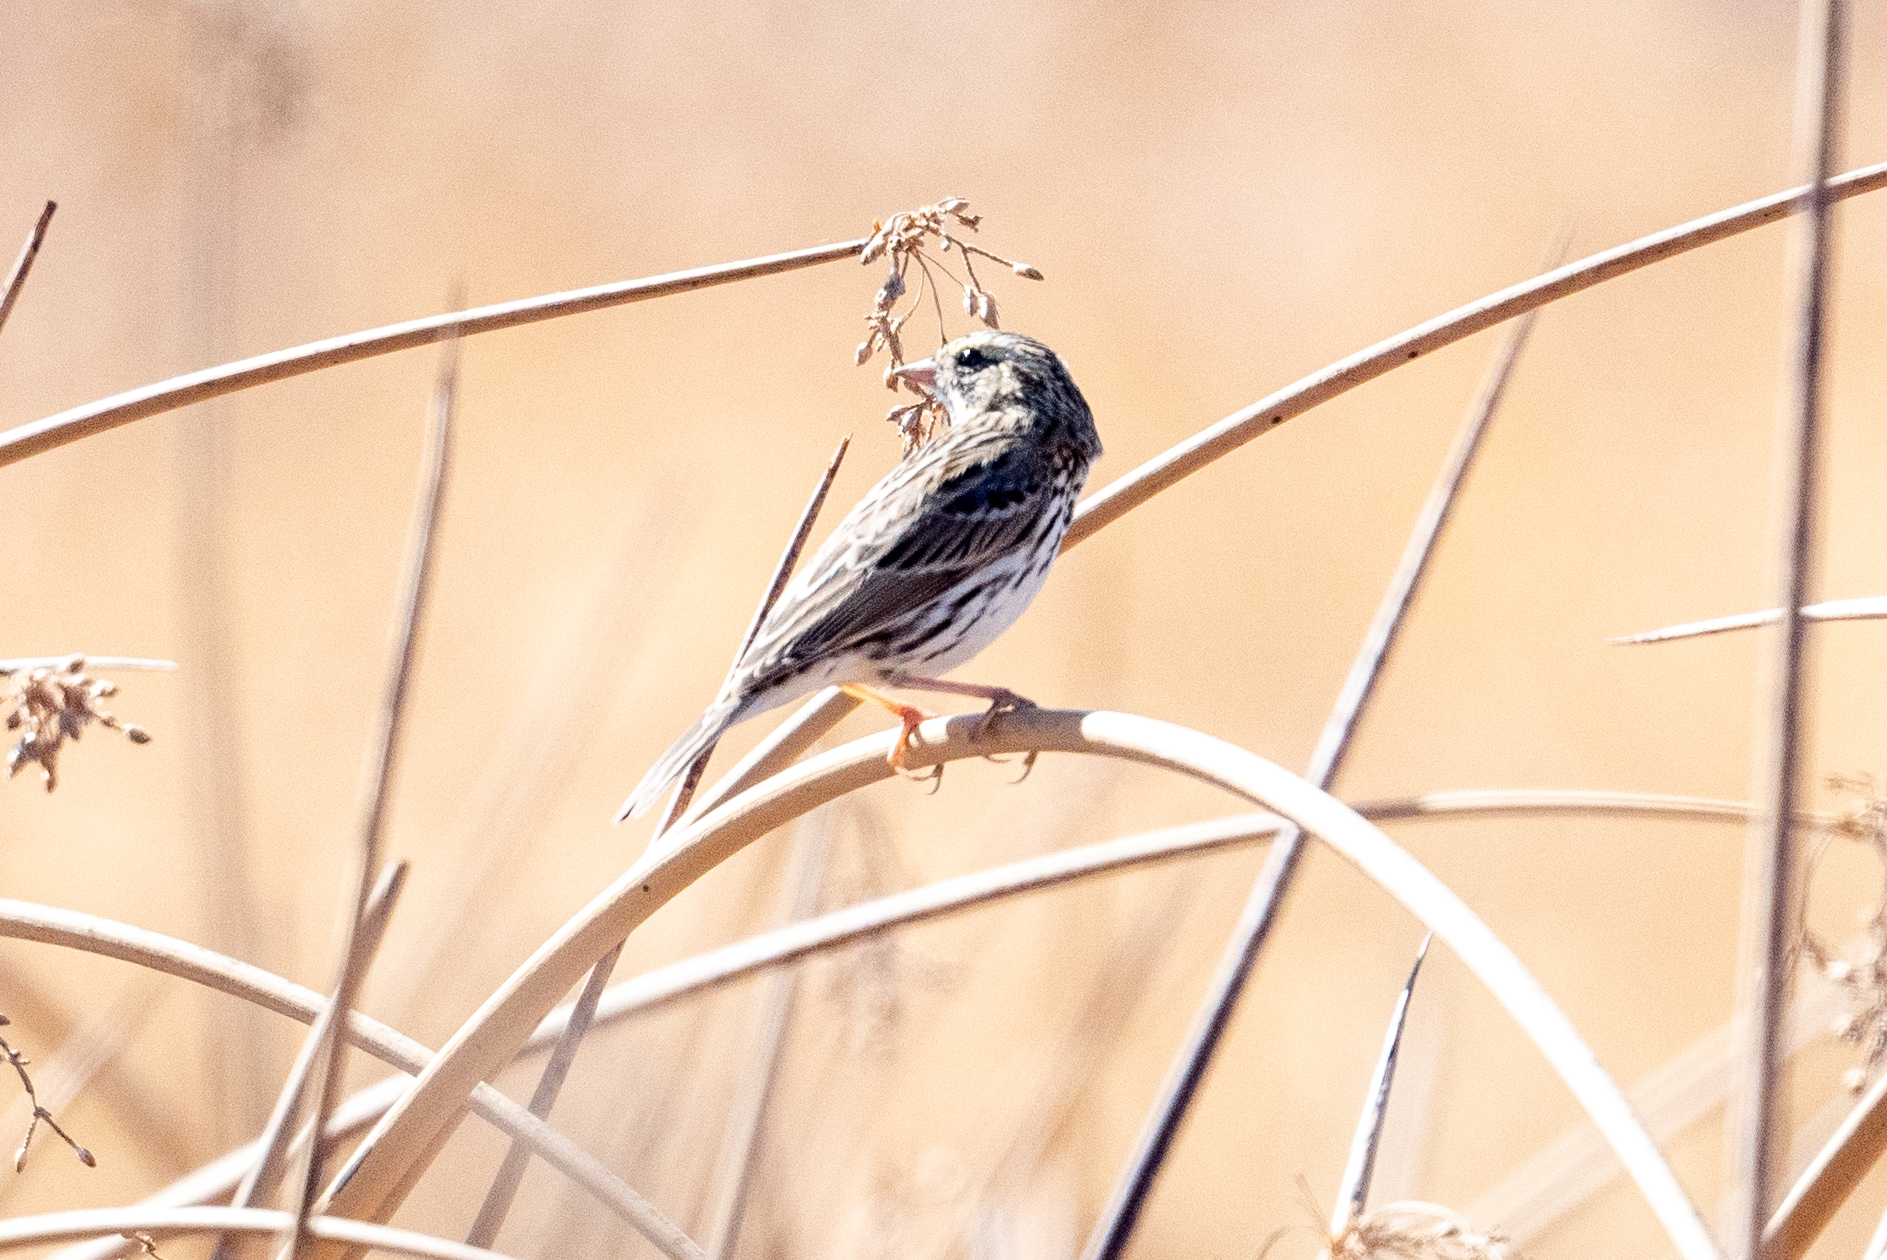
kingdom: Animalia
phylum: Chordata
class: Aves
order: Passeriformes
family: Passerellidae
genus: Passerculus
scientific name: Passerculus sandwichensis
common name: Savannah sparrow
